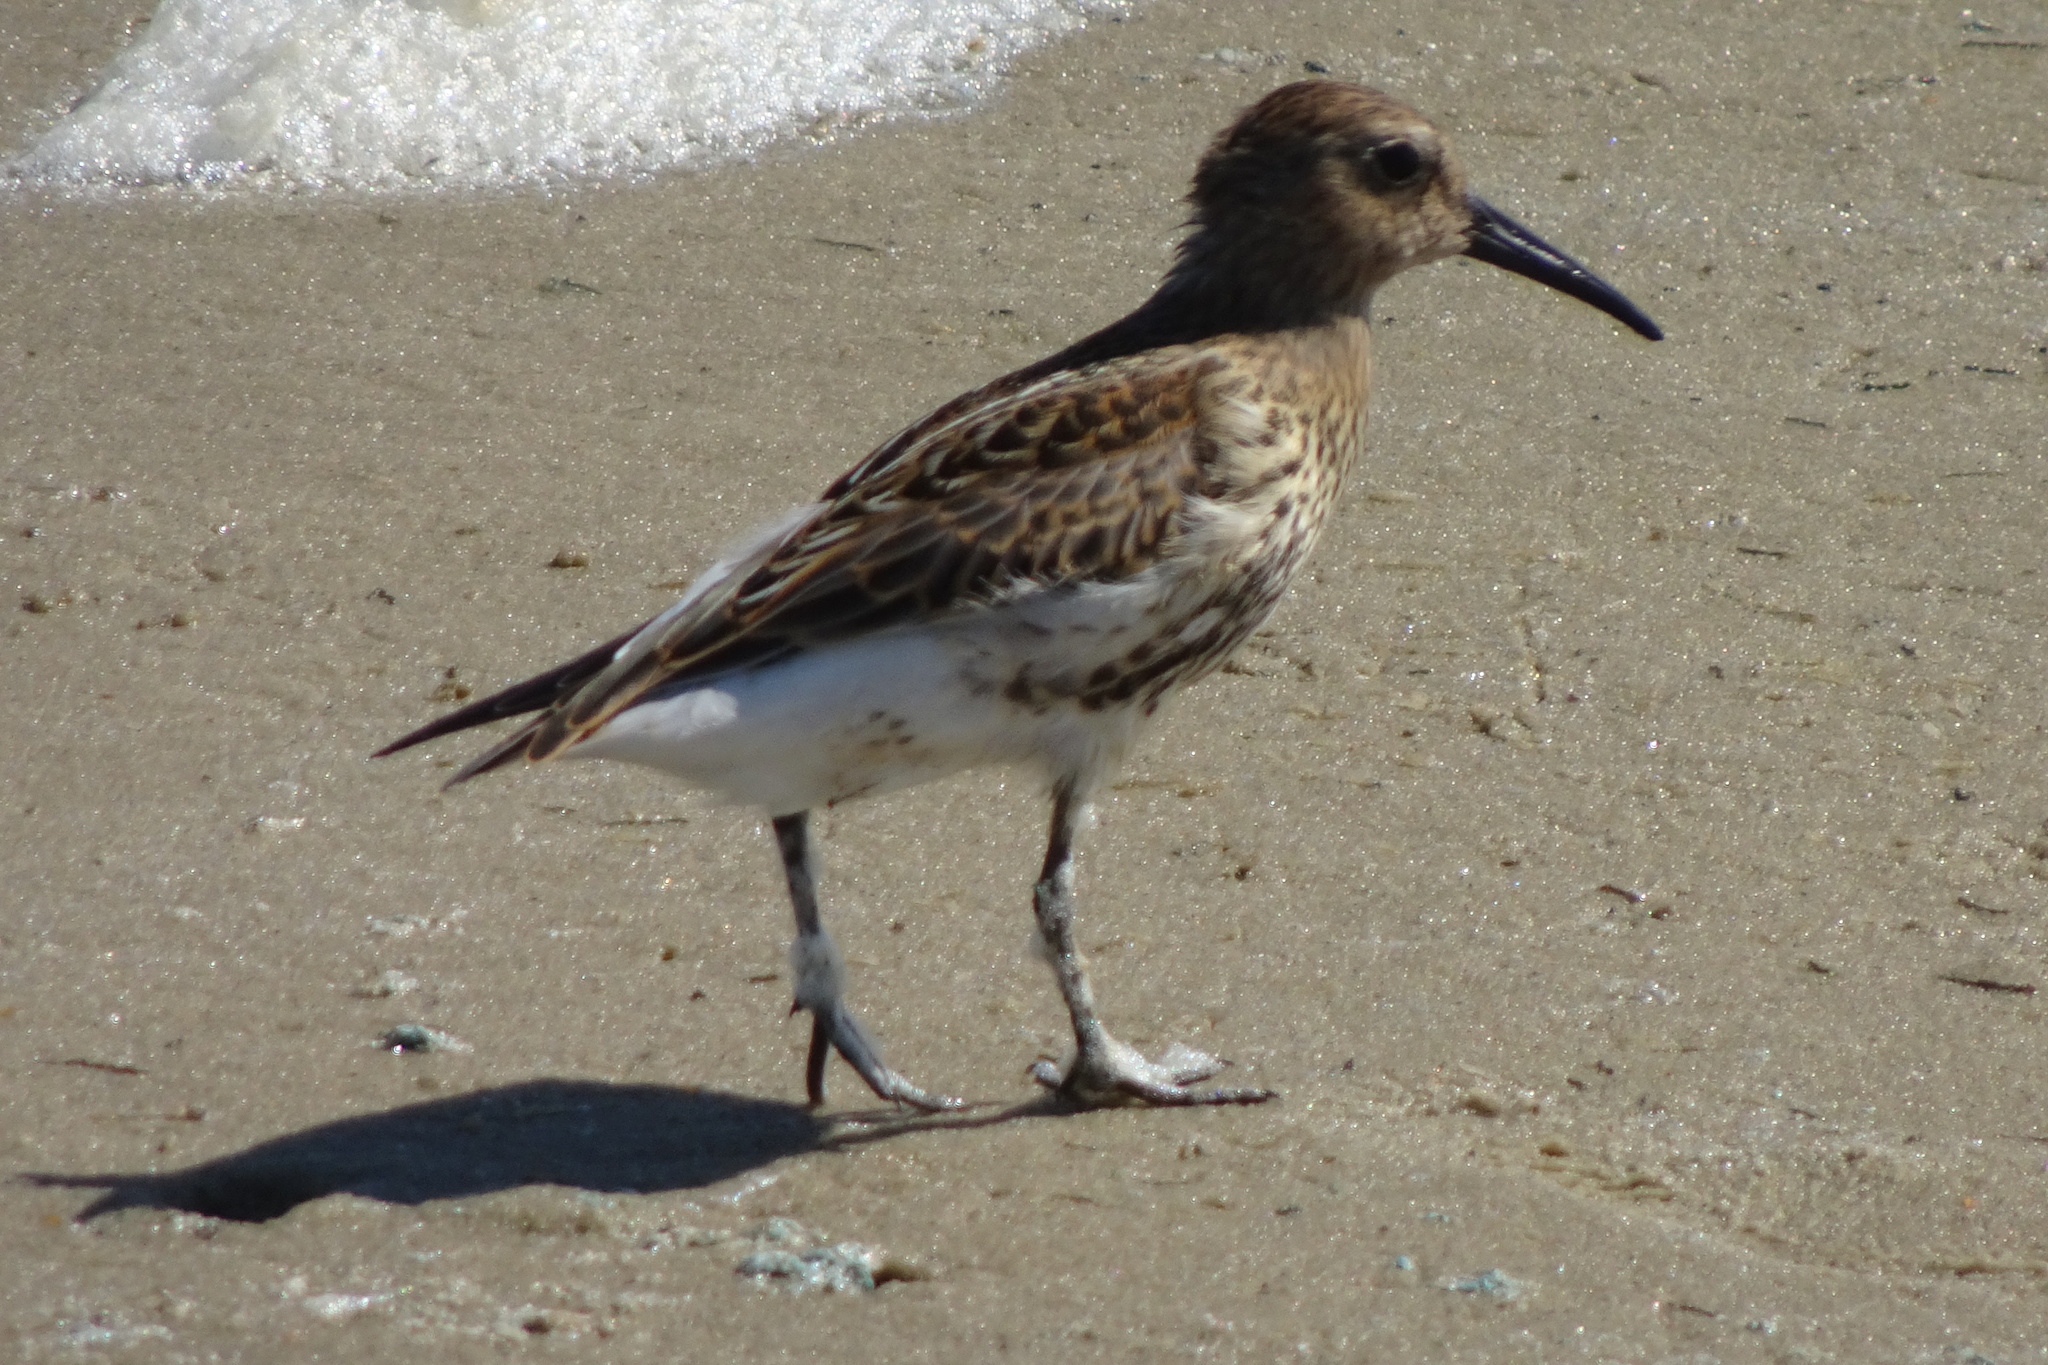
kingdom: Animalia
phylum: Chordata
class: Aves
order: Charadriiformes
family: Scolopacidae
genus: Calidris
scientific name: Calidris alpina
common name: Dunlin
